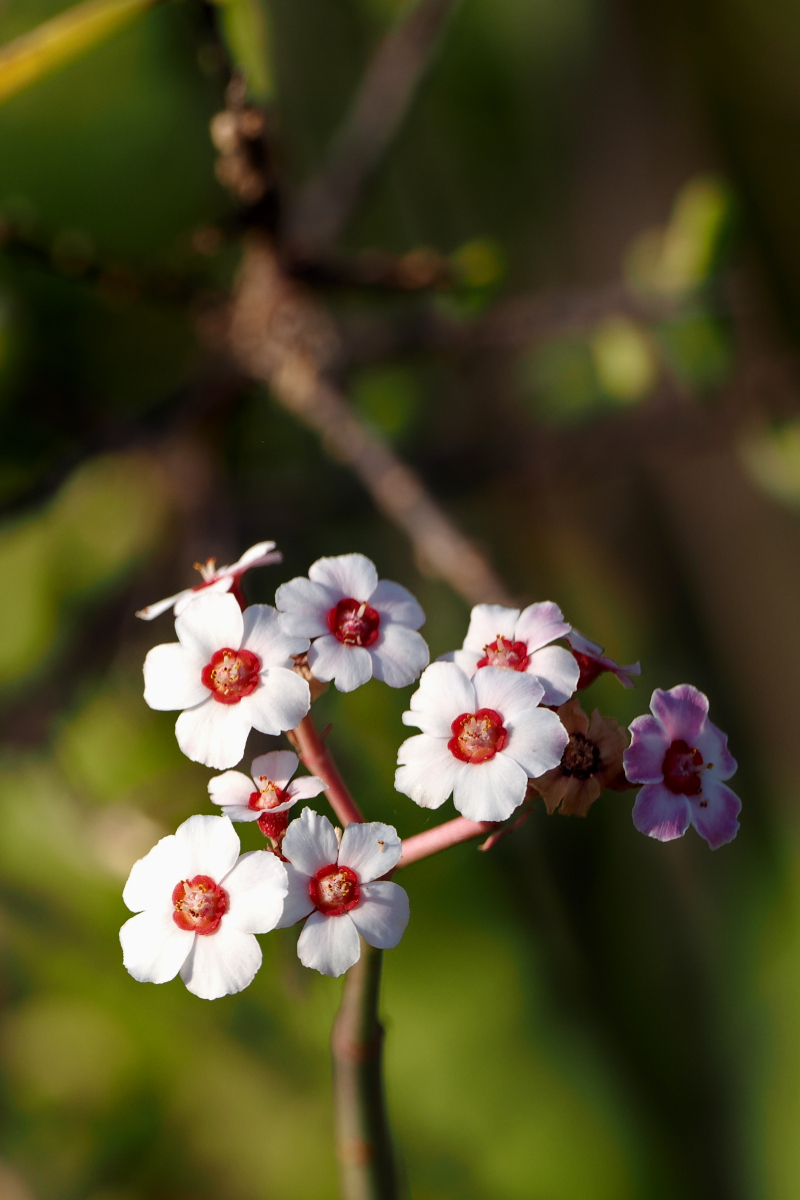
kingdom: Plantae
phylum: Tracheophyta
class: Magnoliopsida
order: Malpighiales
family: Euphorbiaceae
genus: Euphorbia
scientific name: Euphorbia xanti
